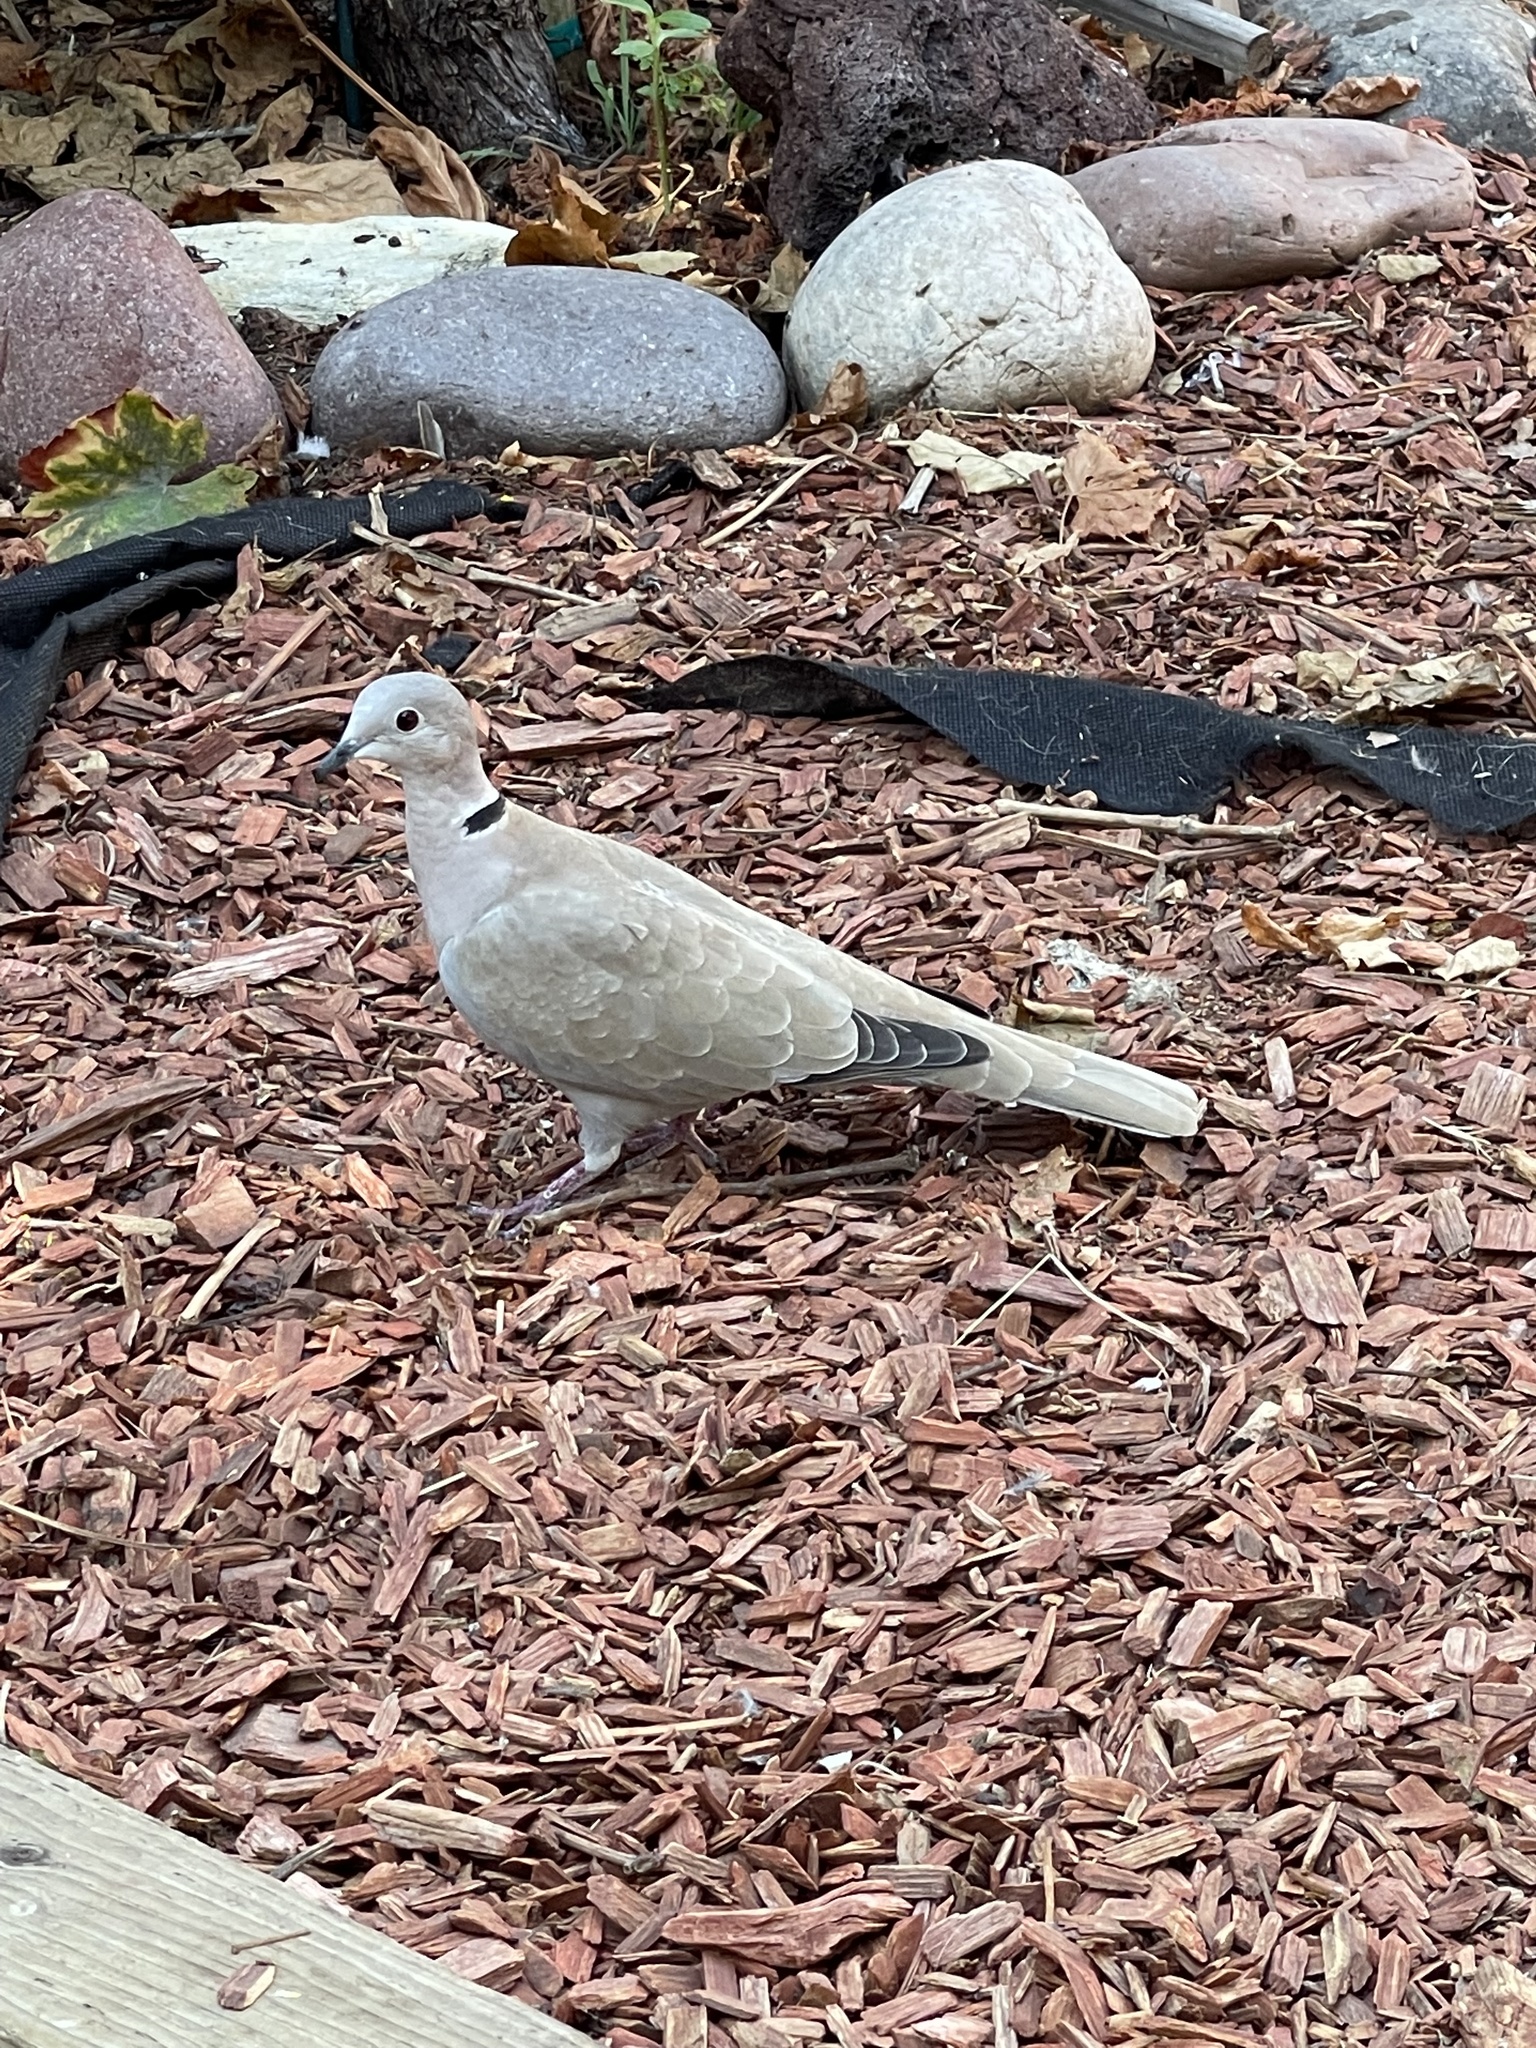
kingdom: Animalia
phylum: Chordata
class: Aves
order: Columbiformes
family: Columbidae
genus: Streptopelia
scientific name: Streptopelia decaocto
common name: Eurasian collared dove
